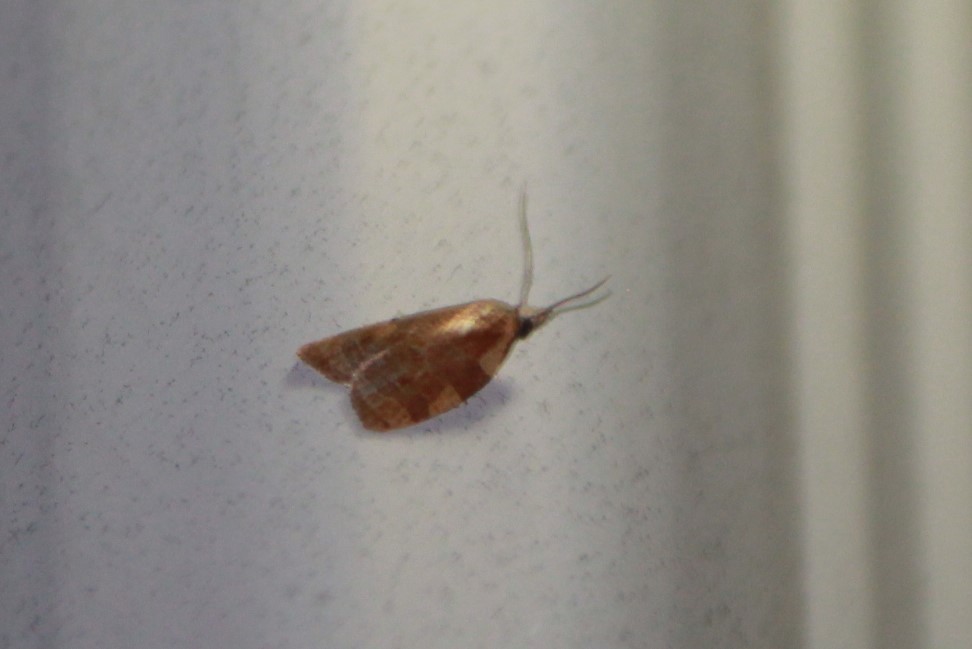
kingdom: Animalia
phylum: Arthropoda
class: Insecta
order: Lepidoptera
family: Tortricidae
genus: Cenopis
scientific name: Cenopis diluticostana
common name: Spring dead-leaf roller moth
